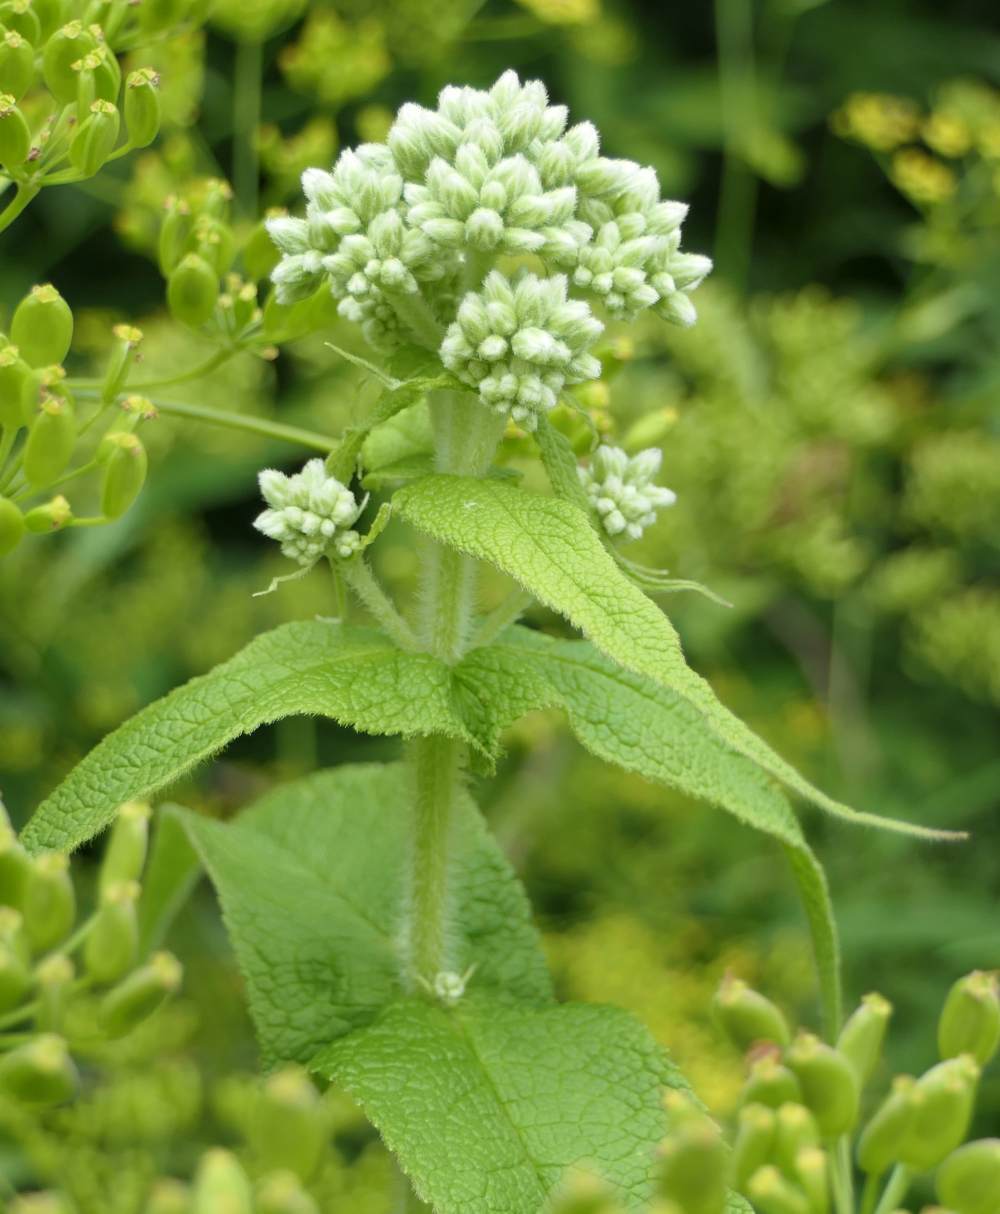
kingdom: Plantae
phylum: Tracheophyta
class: Magnoliopsida
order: Asterales
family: Asteraceae
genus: Eupatorium
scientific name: Eupatorium perfoliatum
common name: Boneset
